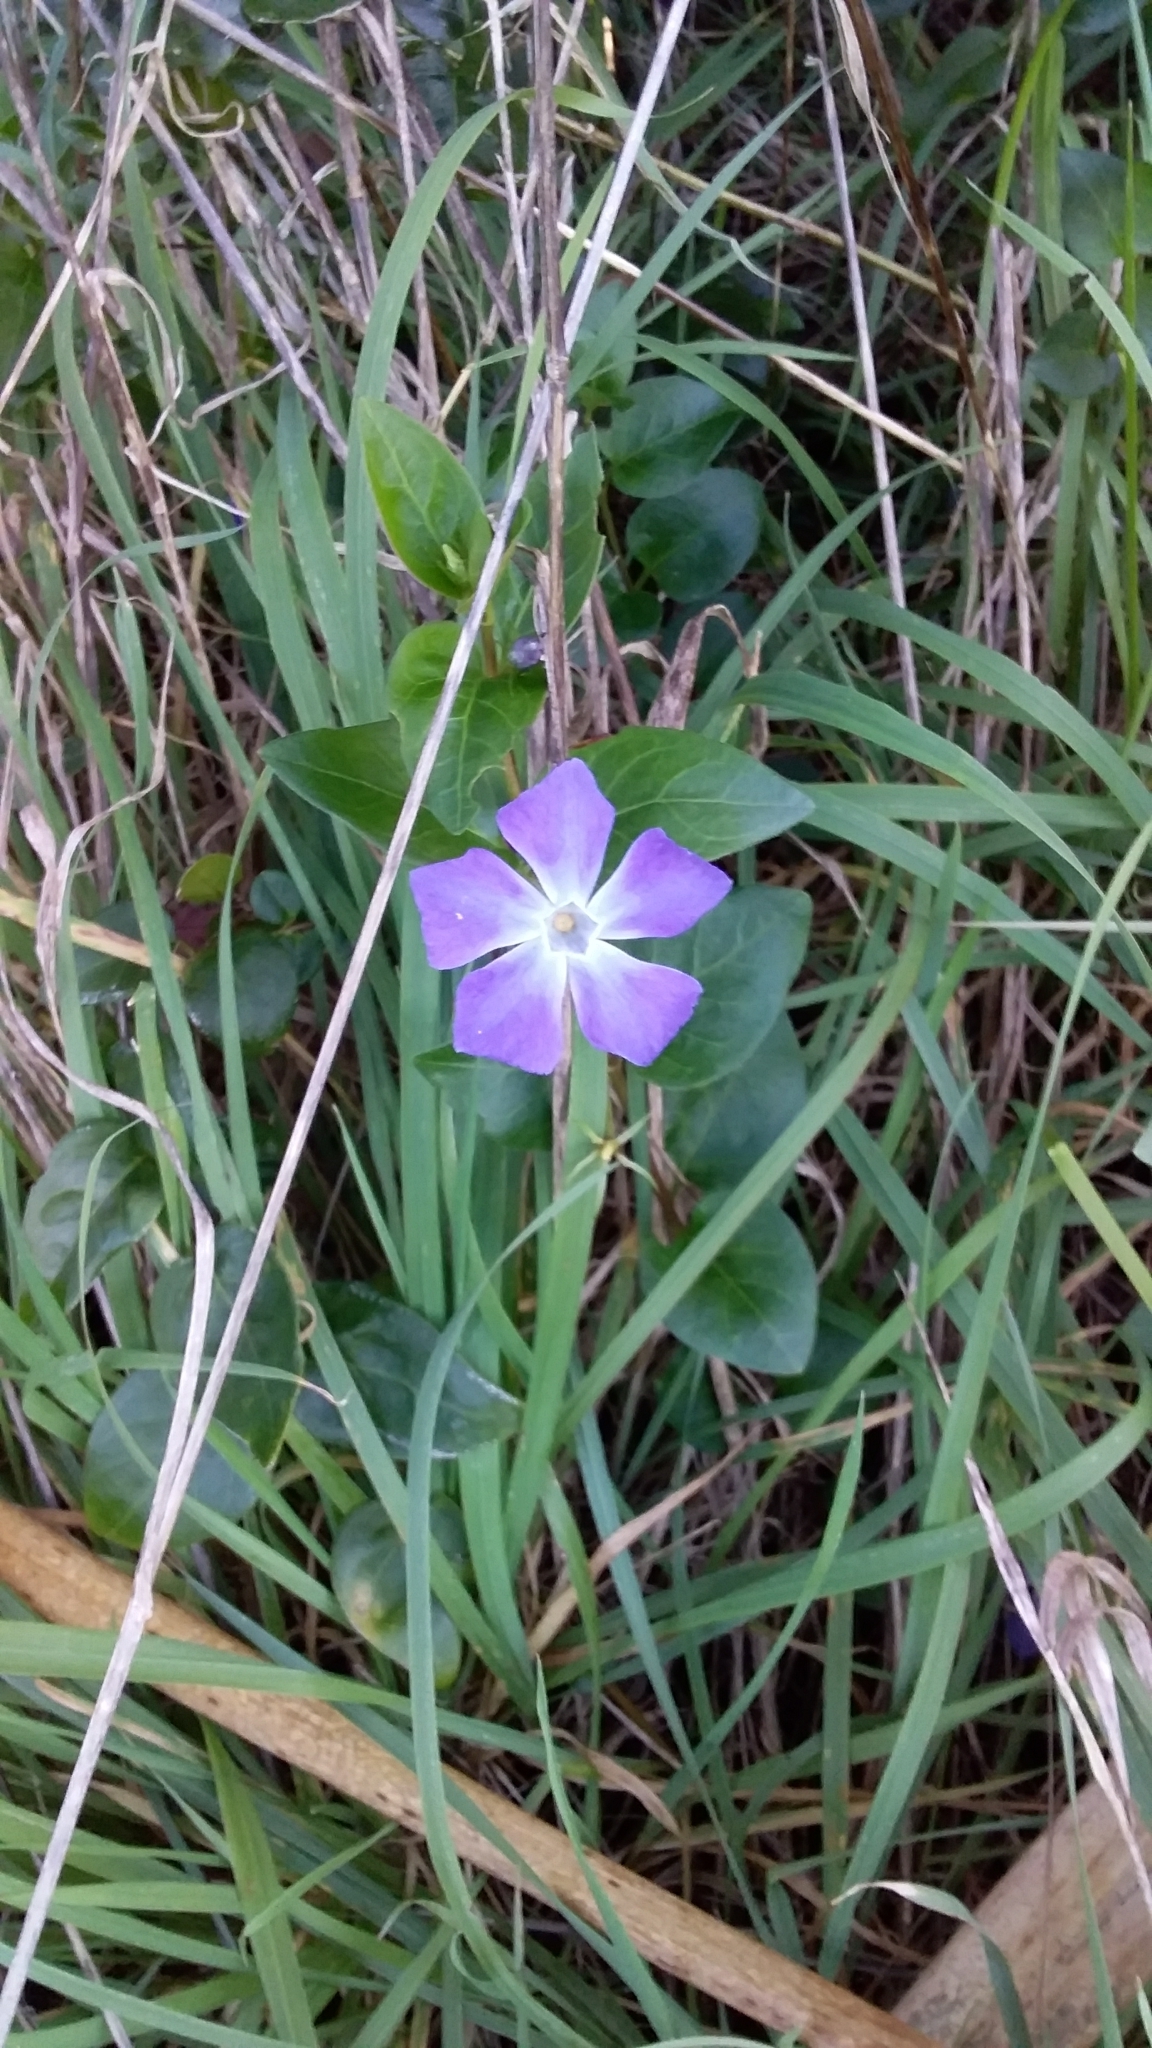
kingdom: Plantae
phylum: Tracheophyta
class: Magnoliopsida
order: Gentianales
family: Apocynaceae
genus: Vinca
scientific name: Vinca major
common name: Greater periwinkle
